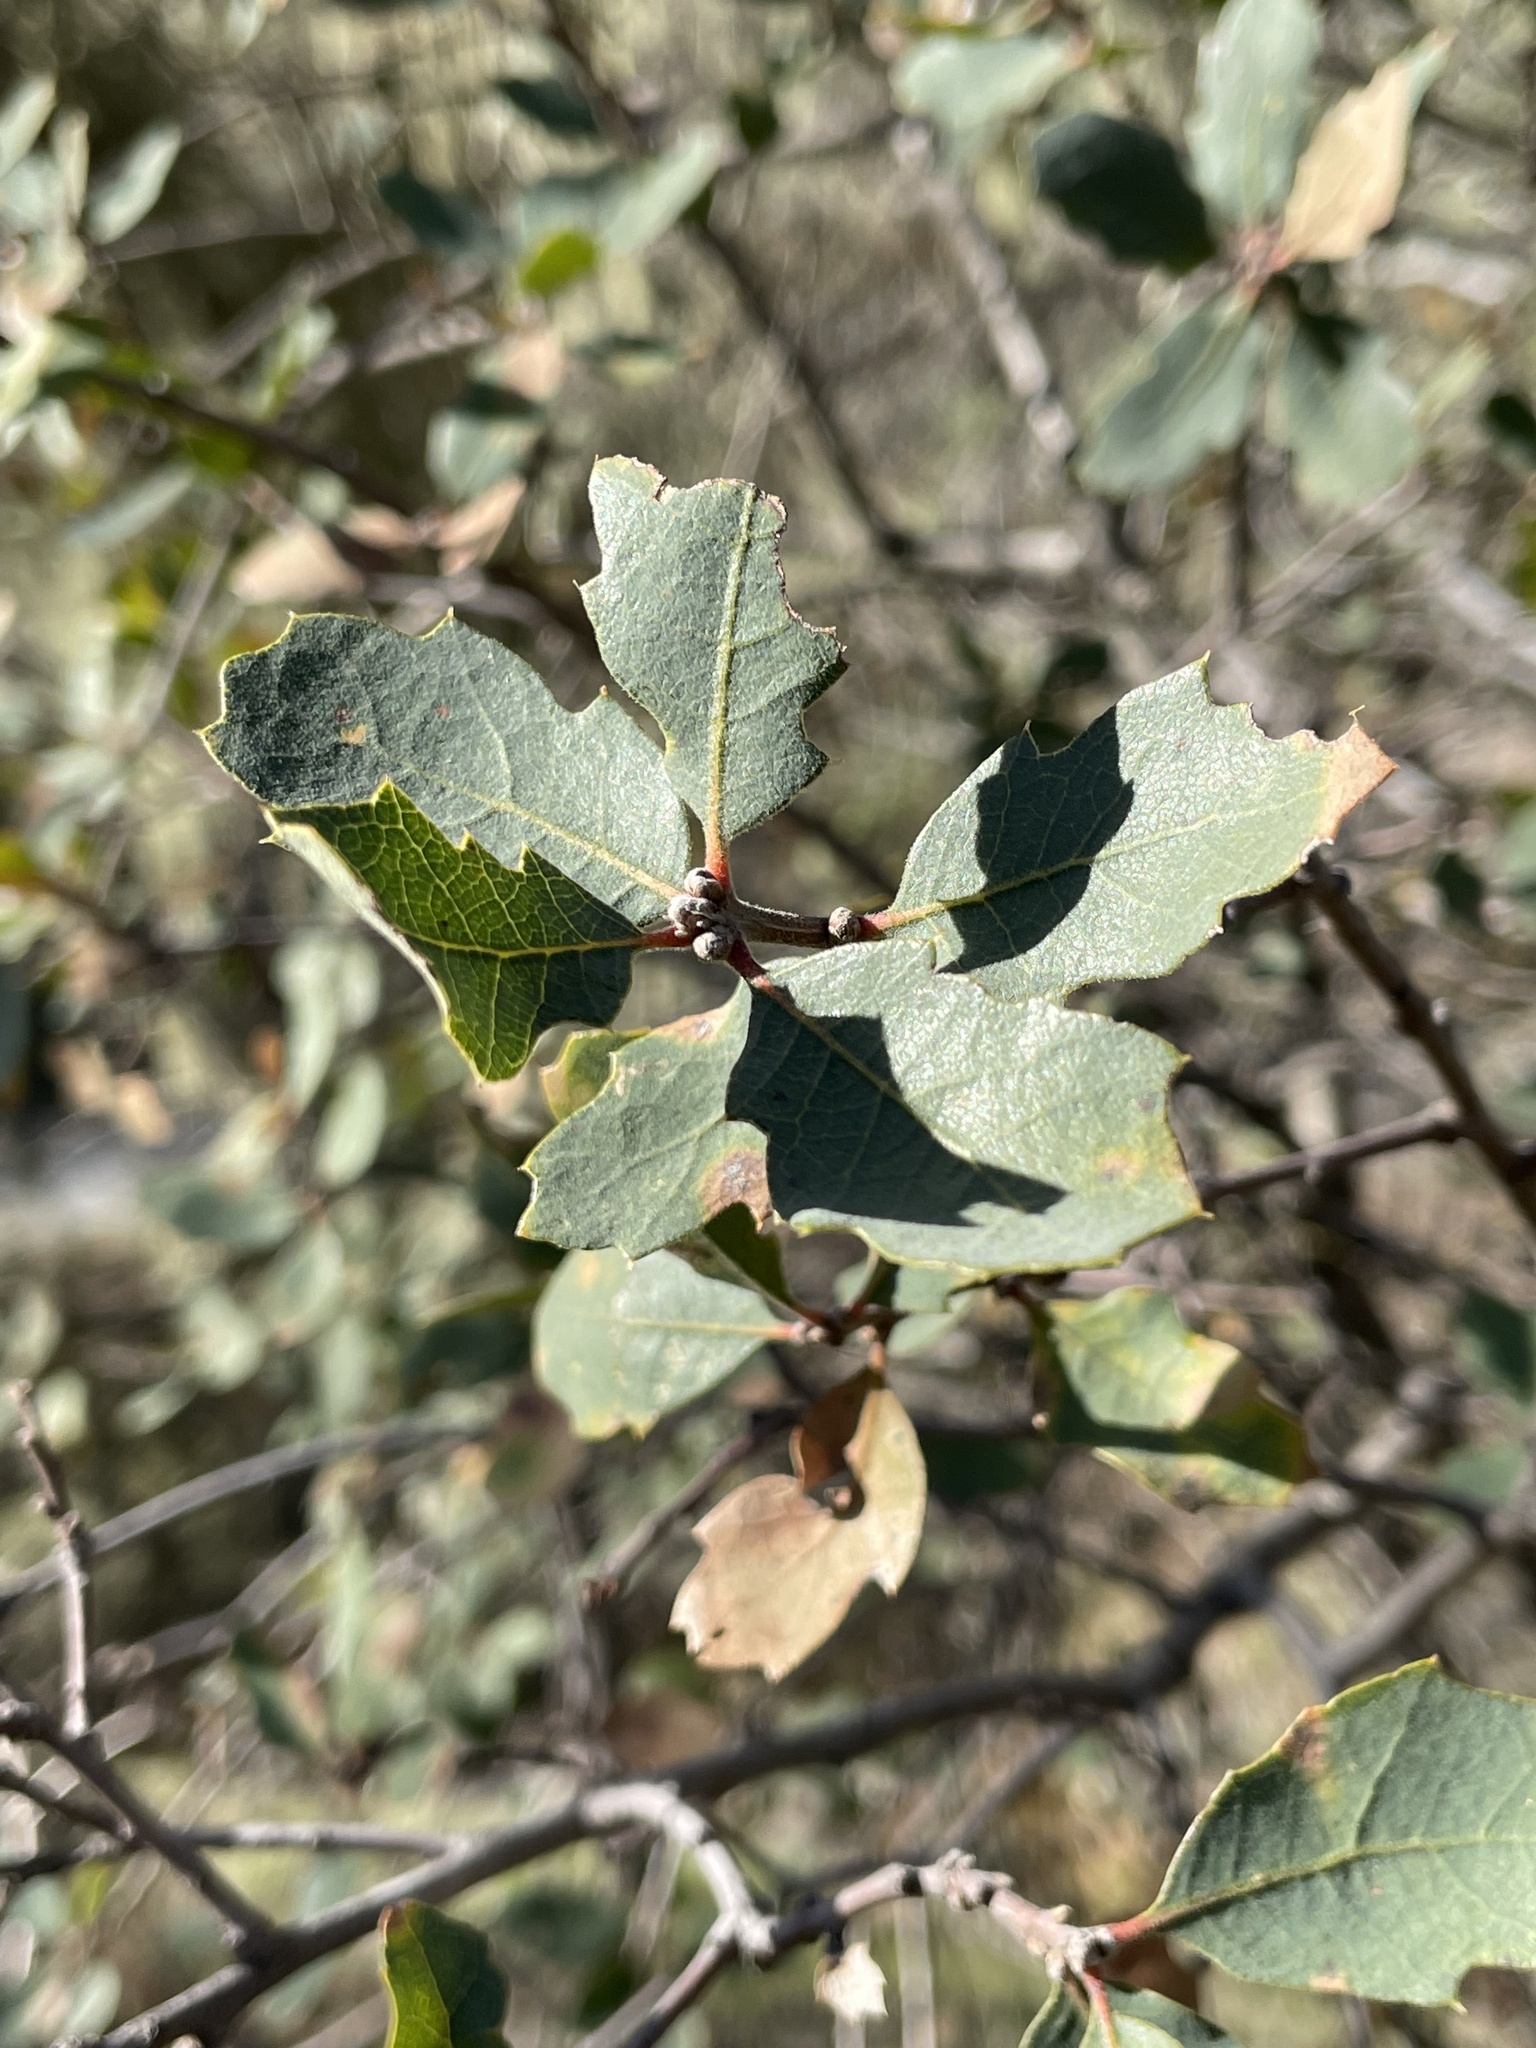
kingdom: Plantae
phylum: Tracheophyta
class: Magnoliopsida
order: Fagales
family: Fagaceae
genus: Quercus
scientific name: Quercus douglasii
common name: Blue oak
